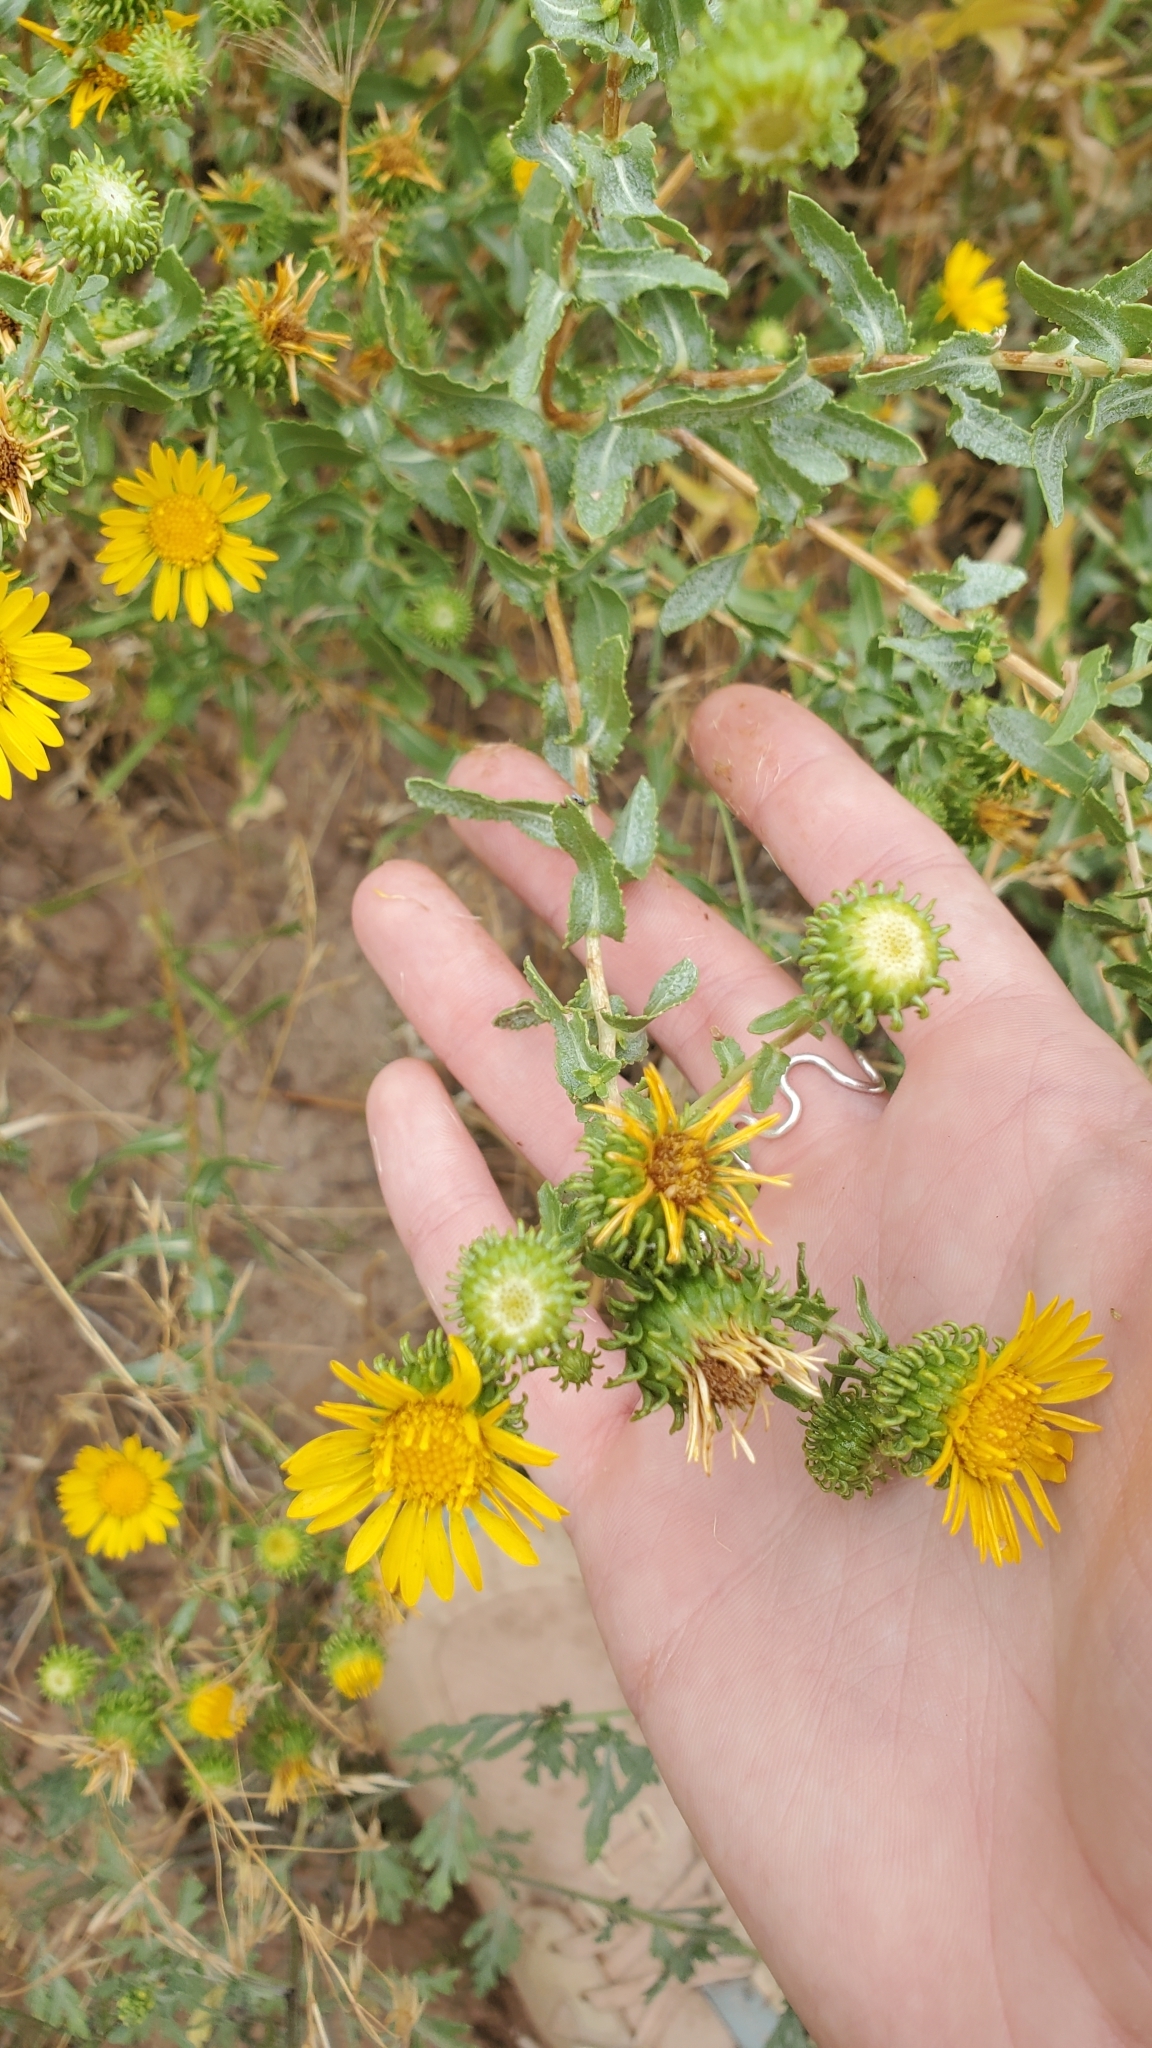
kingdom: Plantae
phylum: Tracheophyta
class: Magnoliopsida
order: Asterales
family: Asteraceae
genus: Grindelia
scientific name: Grindelia squarrosa
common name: Curly-cup gumweed
